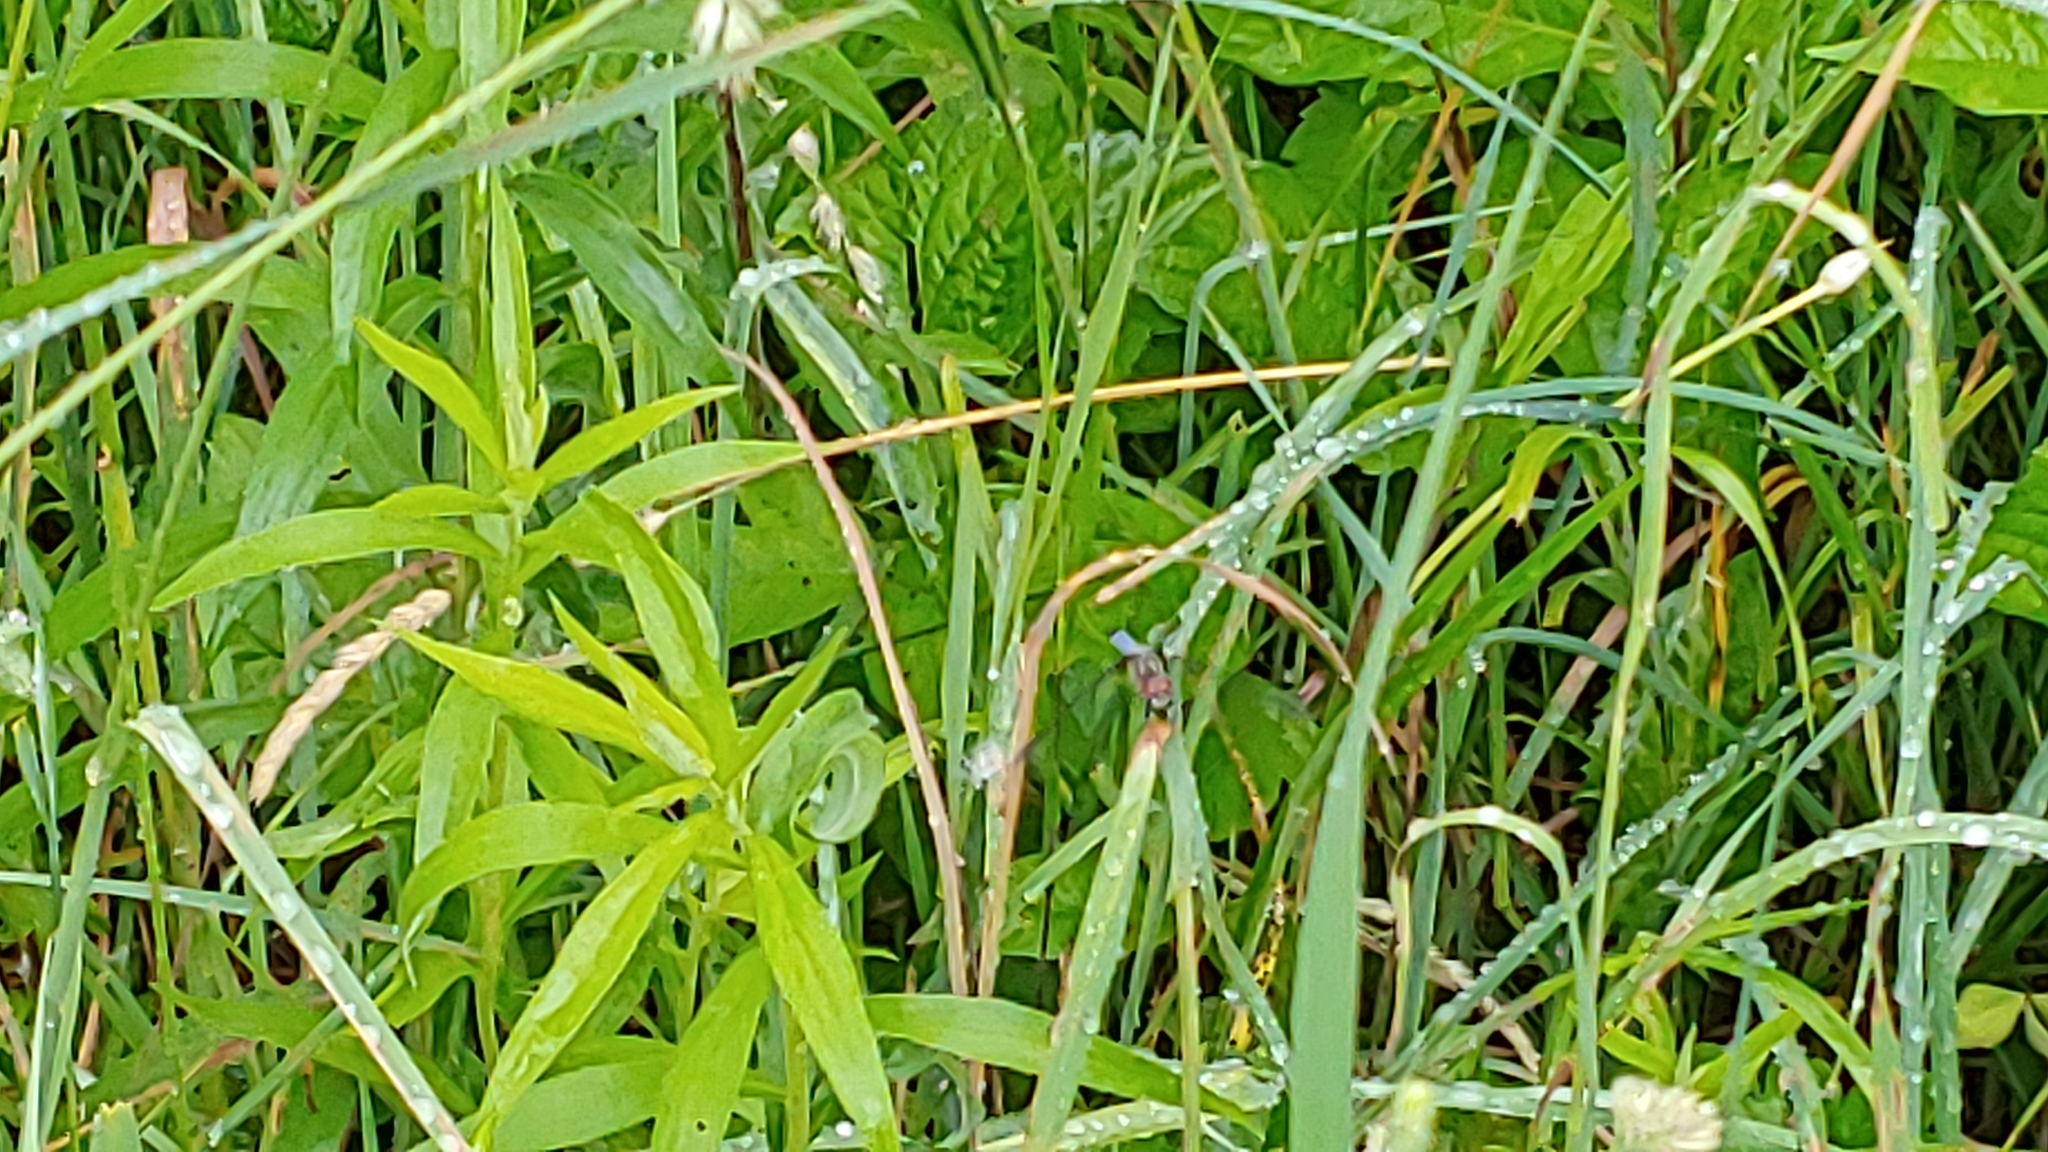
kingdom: Animalia
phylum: Arthropoda
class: Insecta
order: Odonata
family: Libellulidae
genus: Pachydiplax
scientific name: Pachydiplax longipennis
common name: Blue dasher
